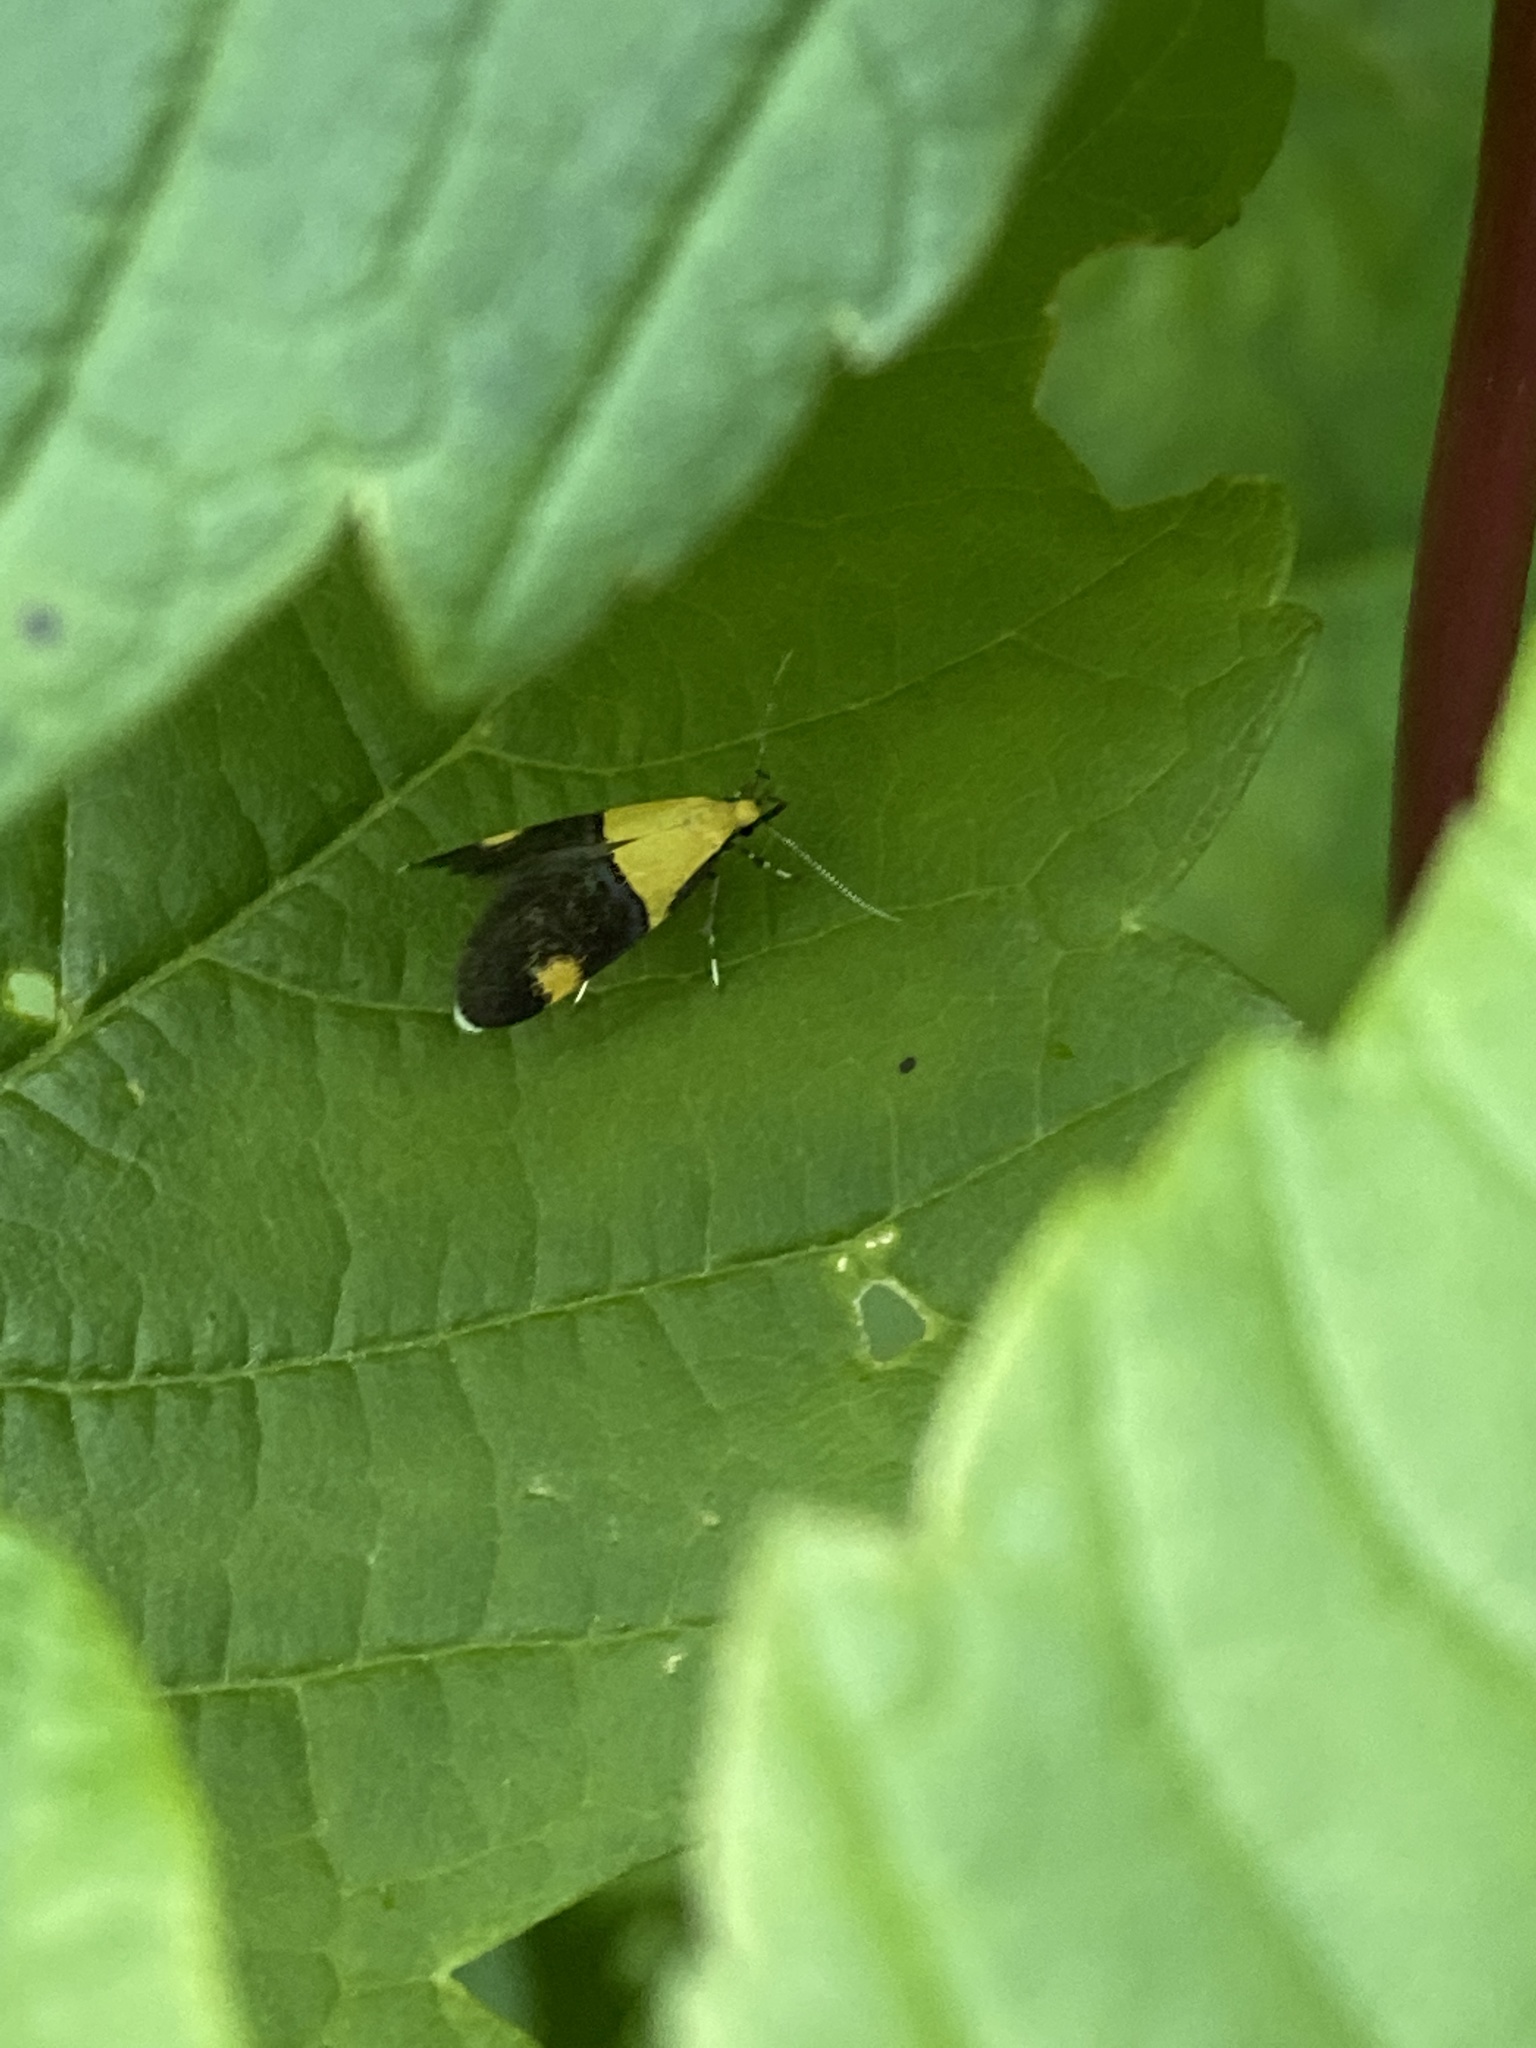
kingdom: Animalia
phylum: Arthropoda
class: Insecta
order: Lepidoptera
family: Oecophoridae
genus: Oecophora
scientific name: Oecophora bractella
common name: Gold-base tubic
